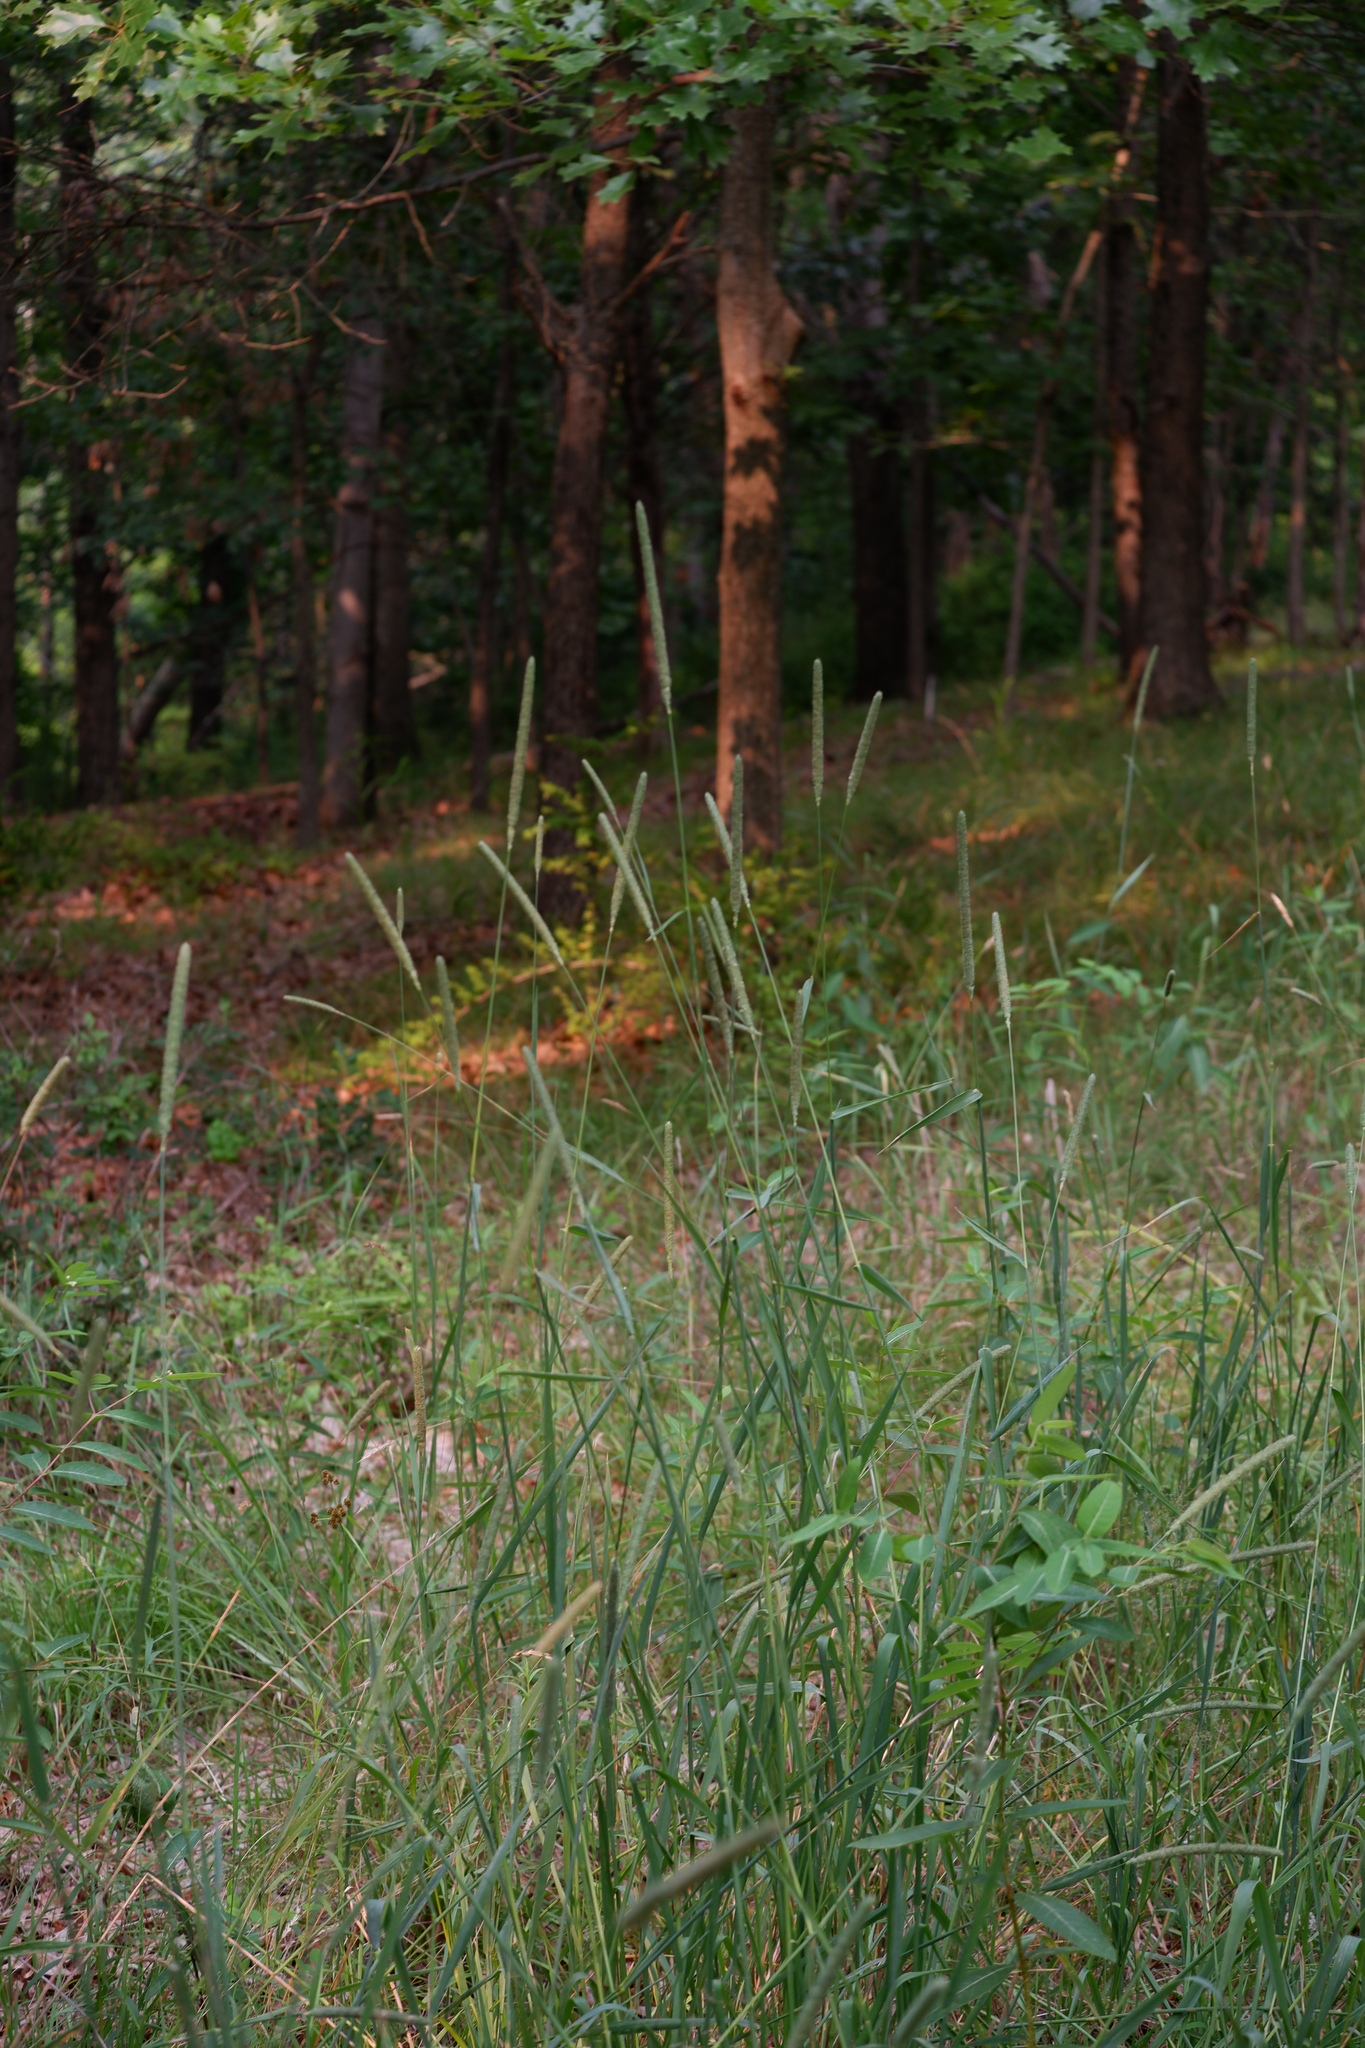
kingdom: Plantae
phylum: Tracheophyta
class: Liliopsida
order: Poales
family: Poaceae
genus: Phleum
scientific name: Phleum pratense
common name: Timothy grass
